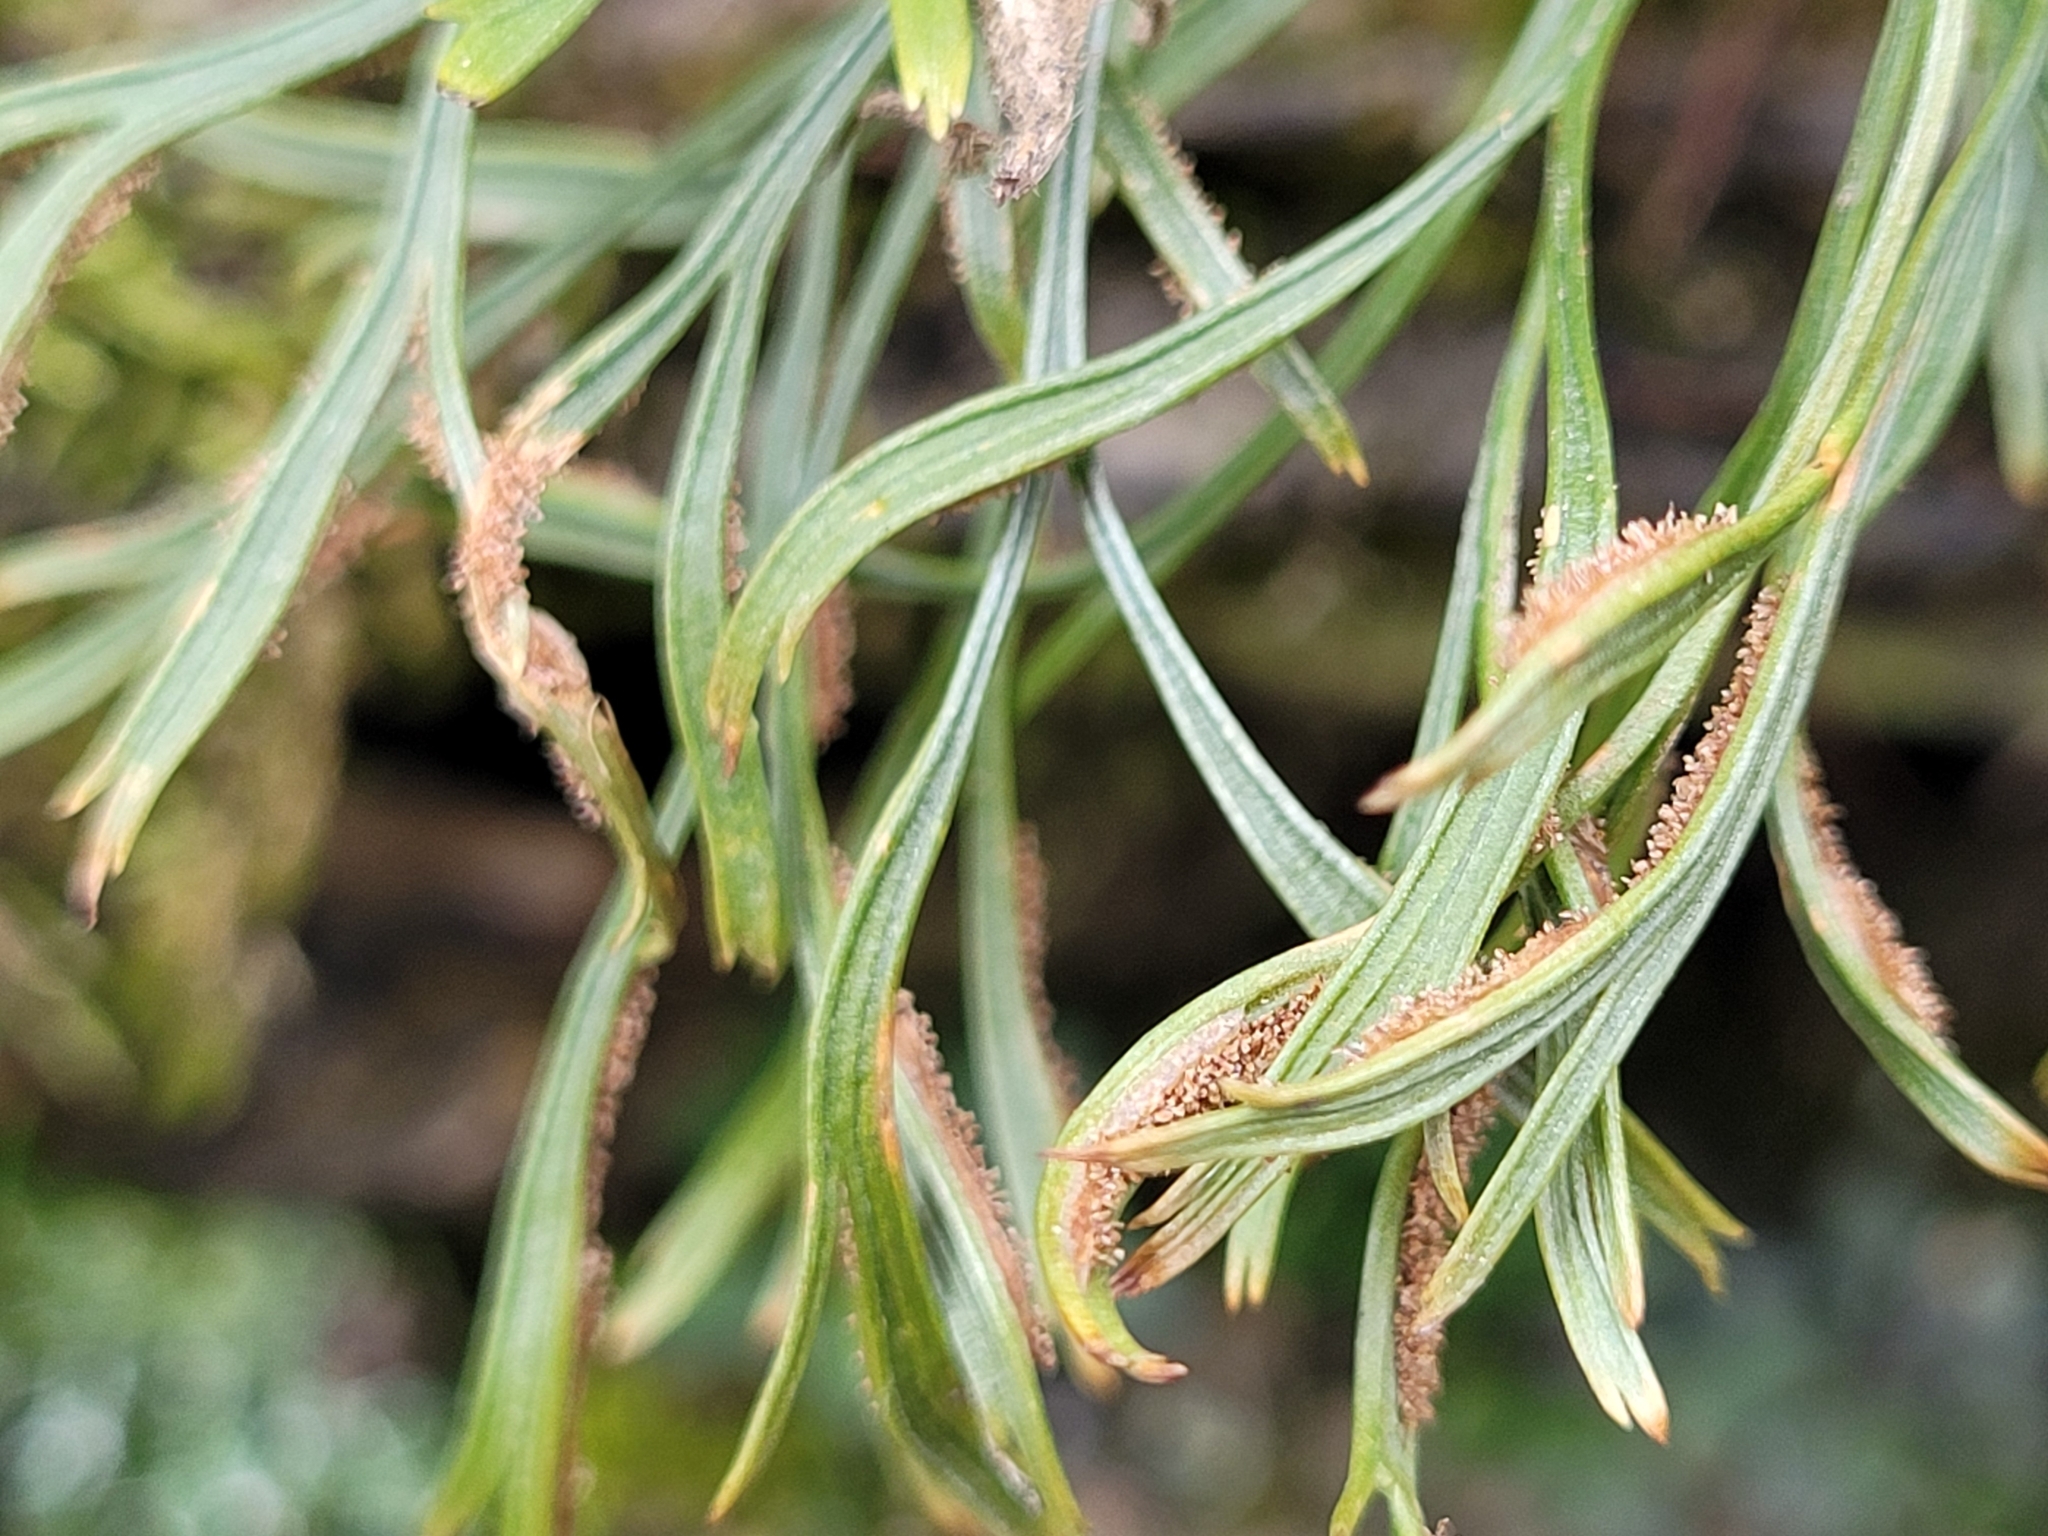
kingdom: Plantae
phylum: Tracheophyta
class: Polypodiopsida
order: Polypodiales
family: Aspleniaceae
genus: Asplenium
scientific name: Asplenium septentrionale
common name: Forked spleenwort
